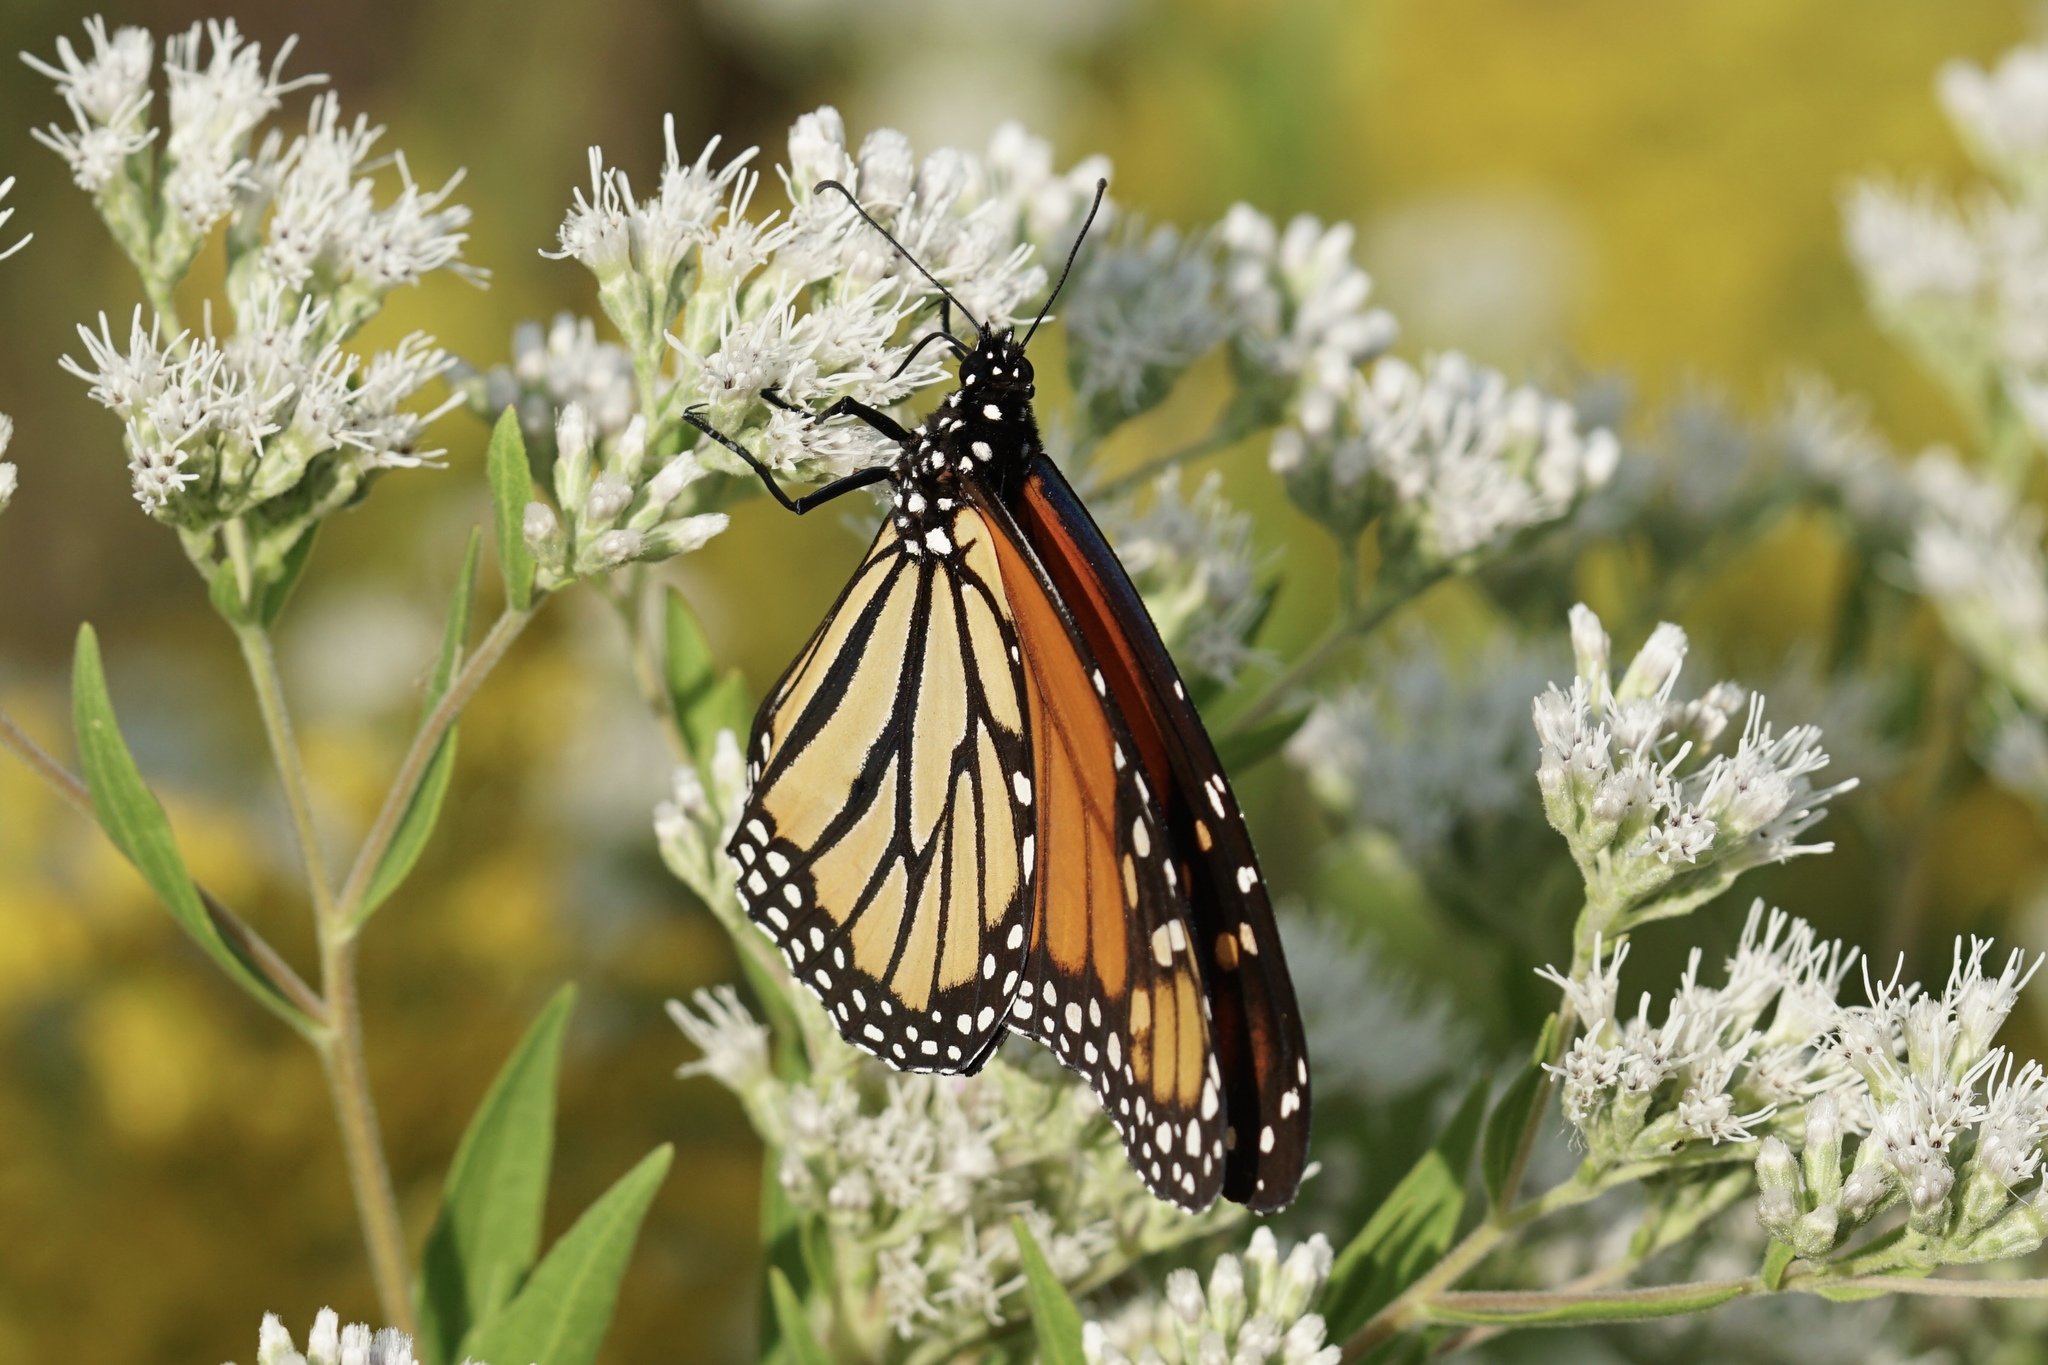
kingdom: Animalia
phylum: Arthropoda
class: Insecta
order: Lepidoptera
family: Nymphalidae
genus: Danaus
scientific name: Danaus plexippus
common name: Monarch
